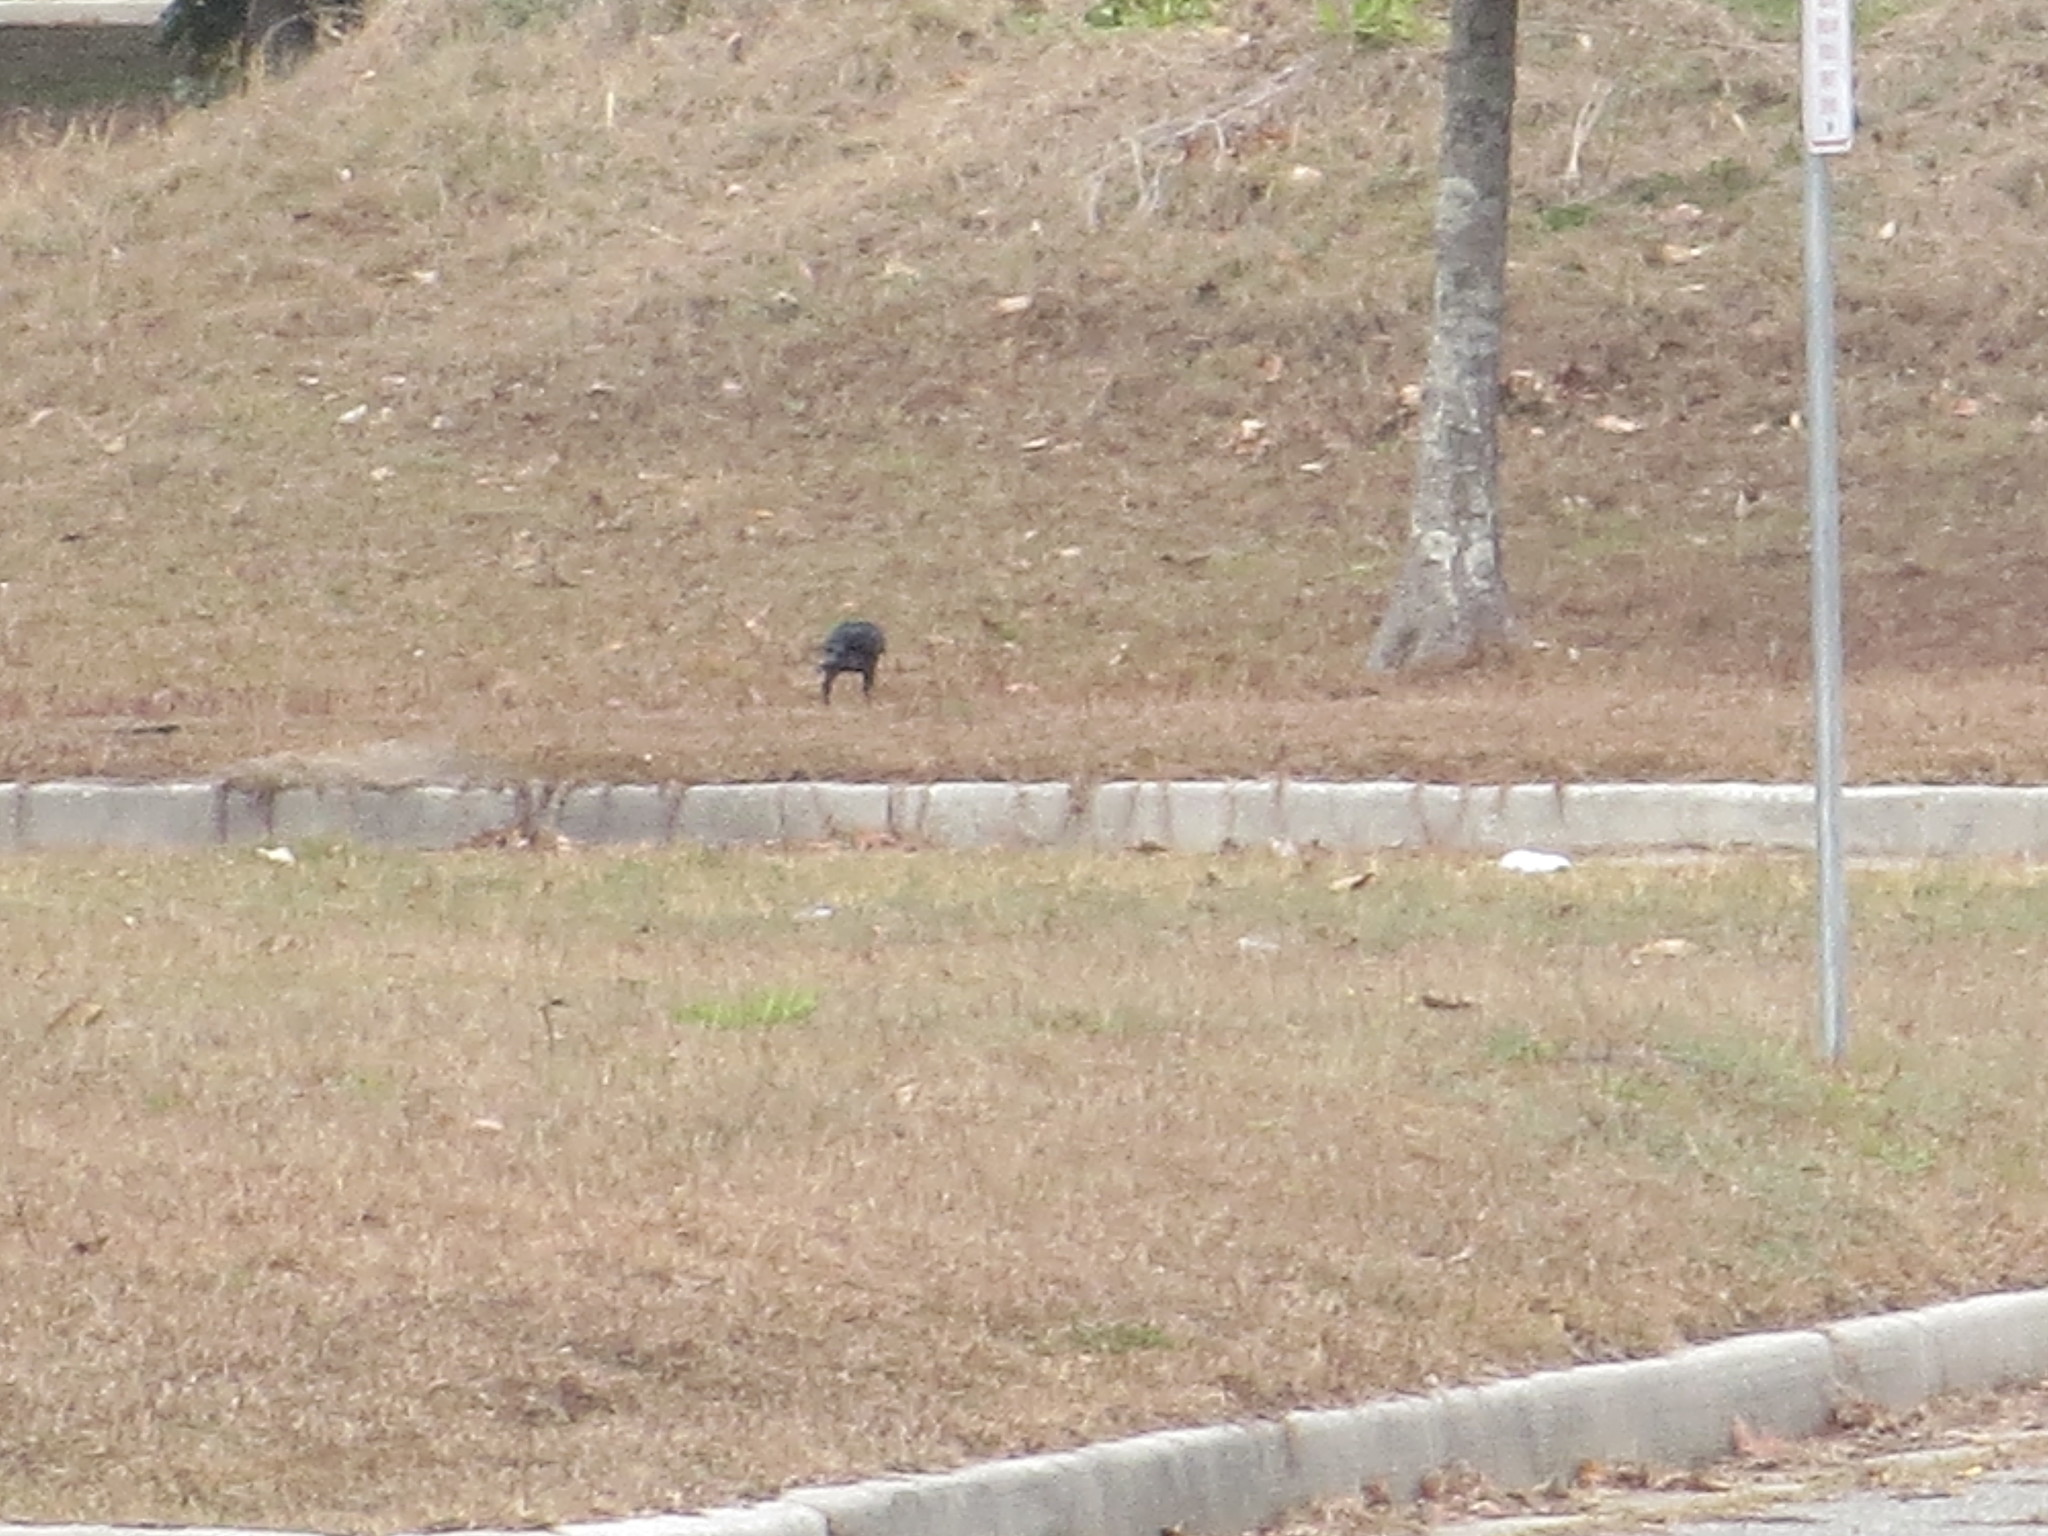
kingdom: Animalia
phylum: Chordata
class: Aves
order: Passeriformes
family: Corvidae
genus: Corvus
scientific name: Corvus brachyrhynchos
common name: American crow
